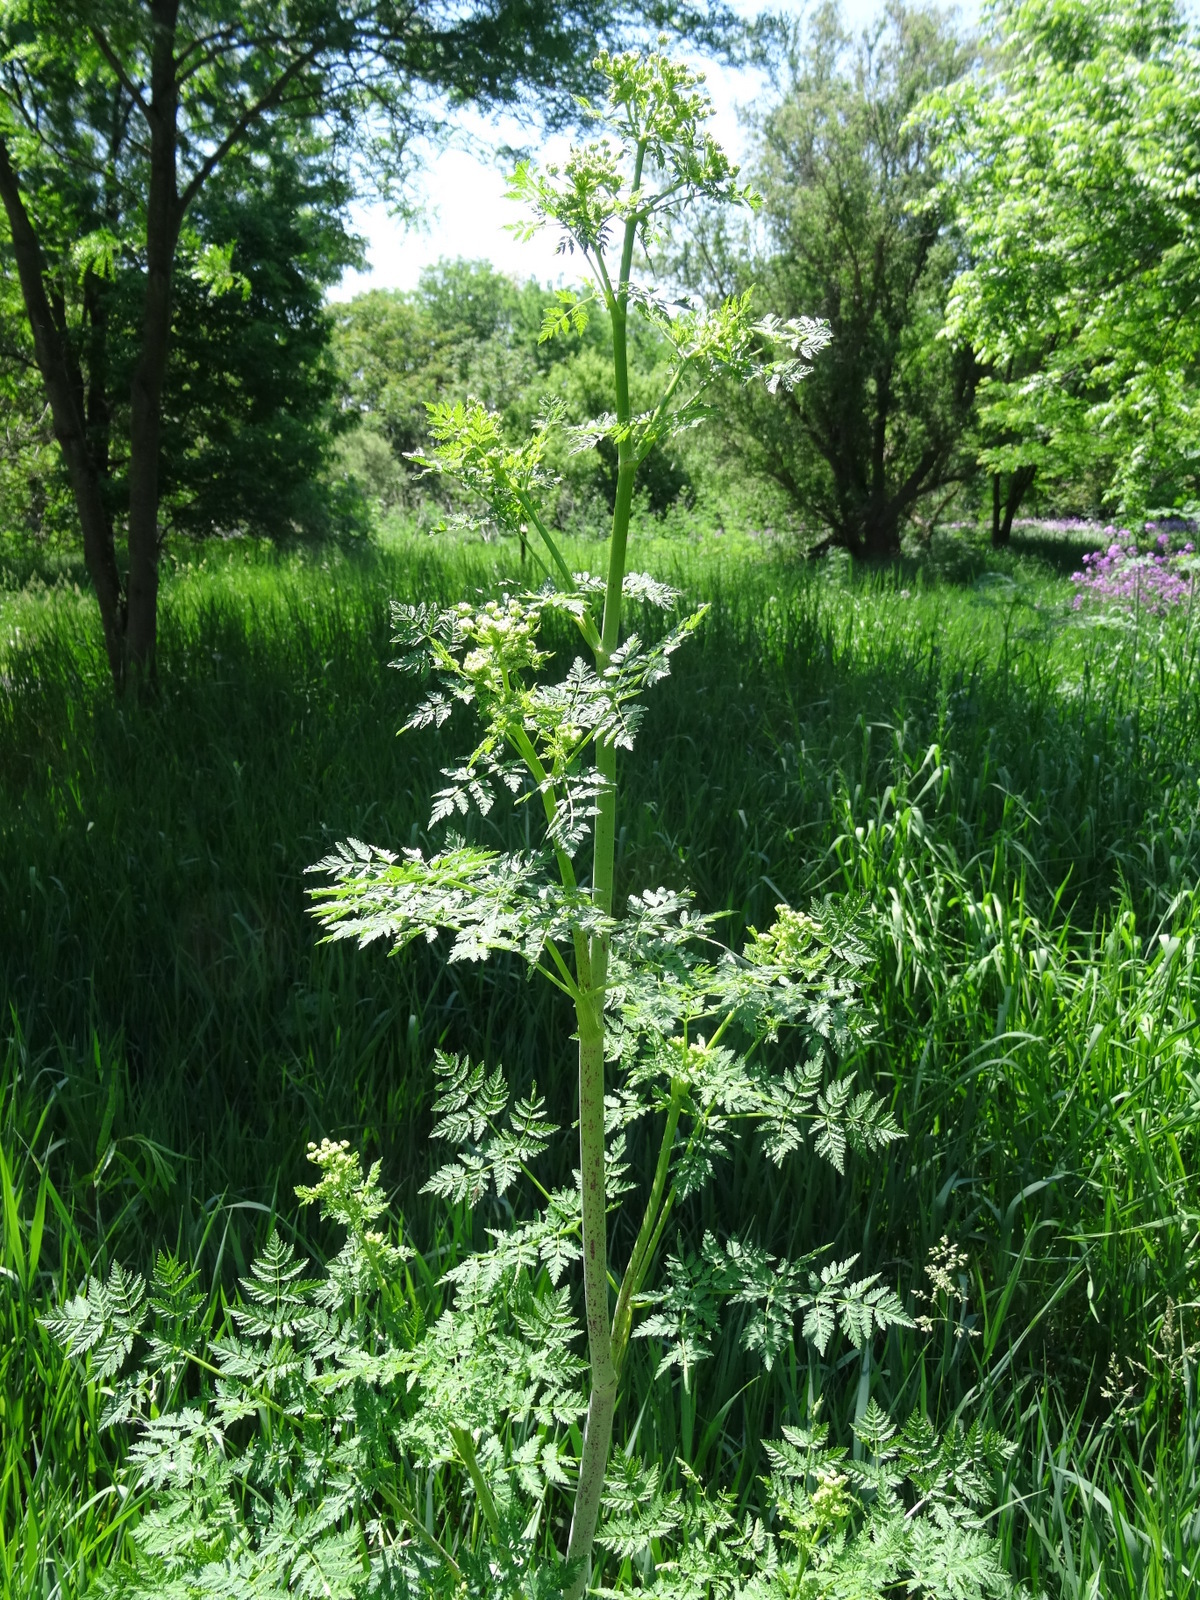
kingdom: Plantae
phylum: Tracheophyta
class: Magnoliopsida
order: Apiales
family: Apiaceae
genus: Conium
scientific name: Conium maculatum
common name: Hemlock
